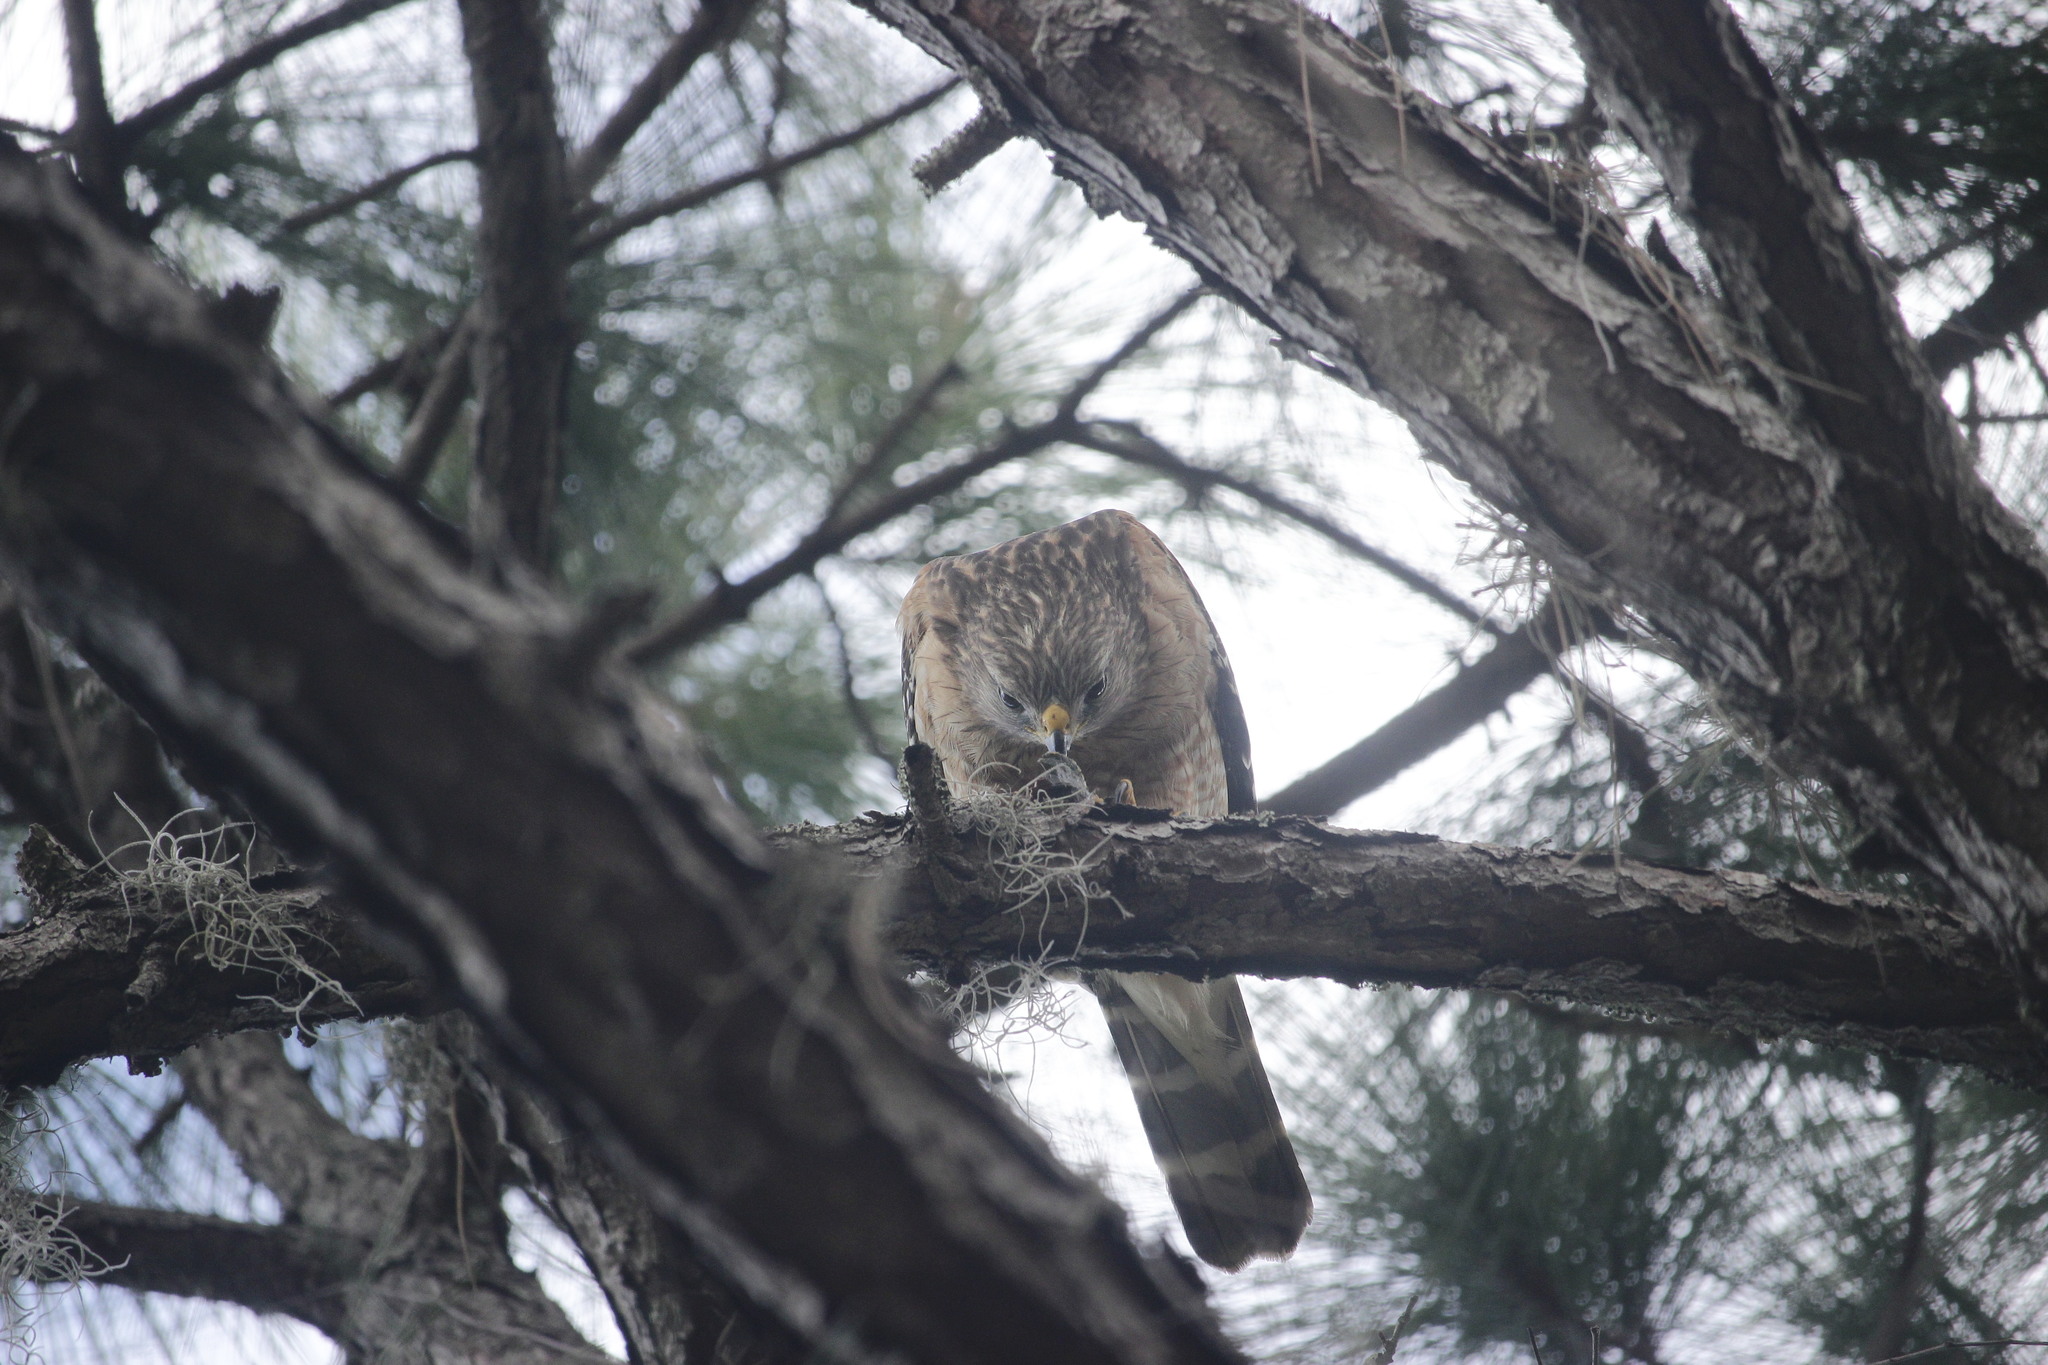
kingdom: Animalia
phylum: Chordata
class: Aves
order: Accipitriformes
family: Accipitridae
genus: Buteo
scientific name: Buteo lineatus
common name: Red-shouldered hawk
